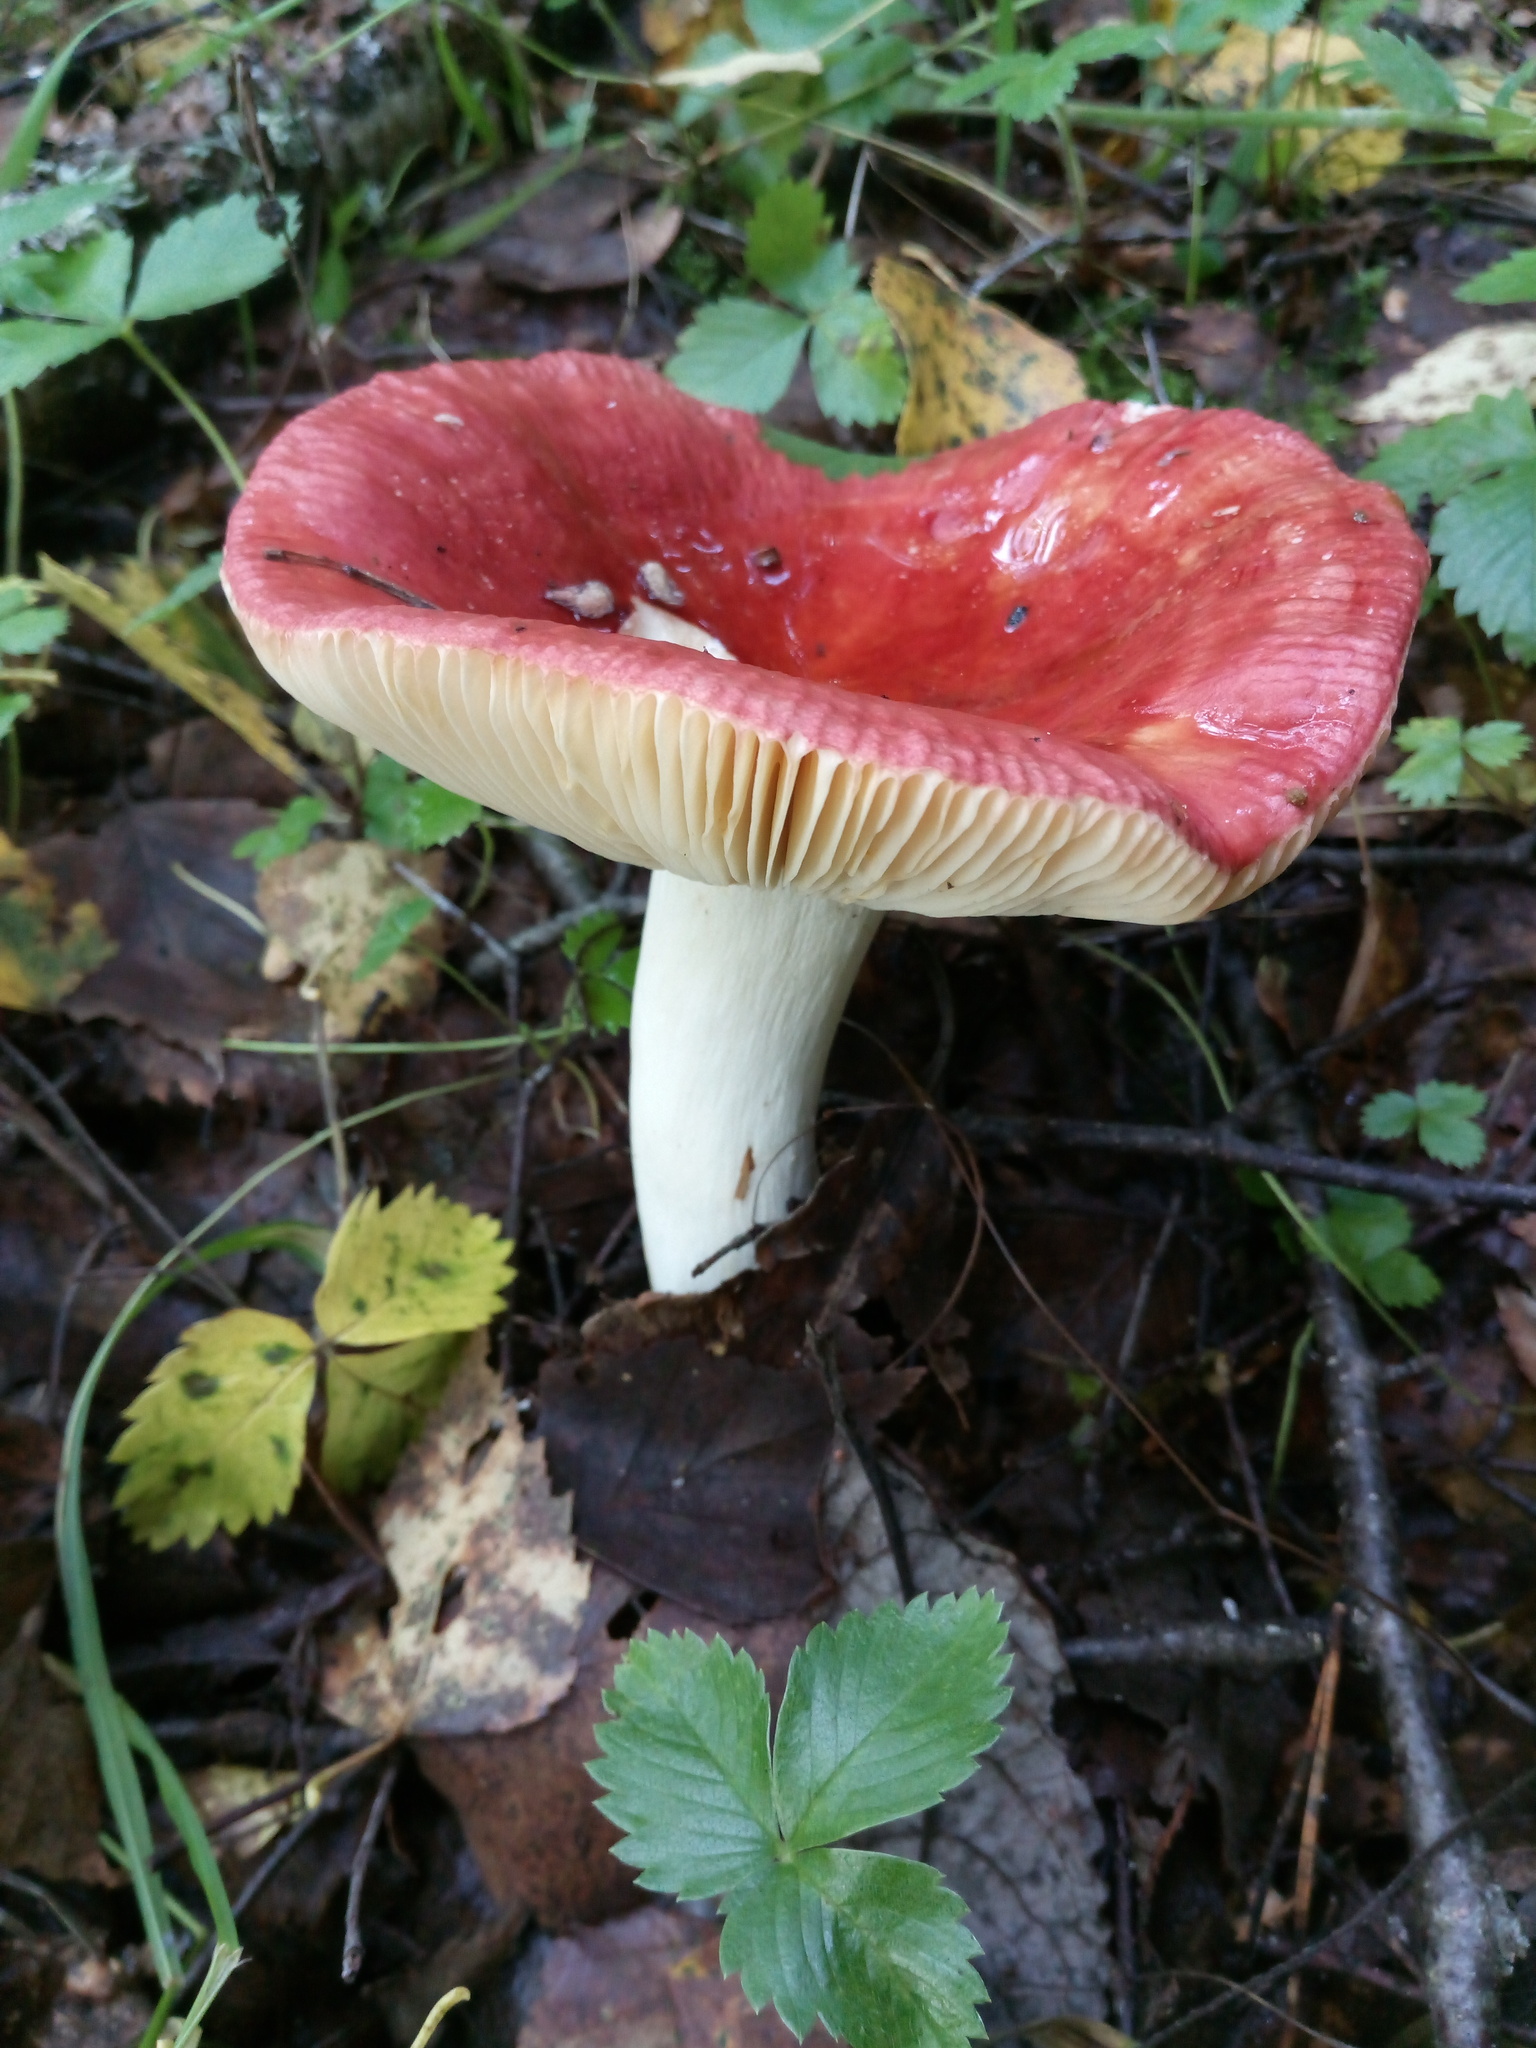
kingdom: Fungi
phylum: Basidiomycota
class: Agaricomycetes
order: Russulales
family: Russulaceae
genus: Russula
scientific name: Russula sanguinea
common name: Bloody brittlegill
